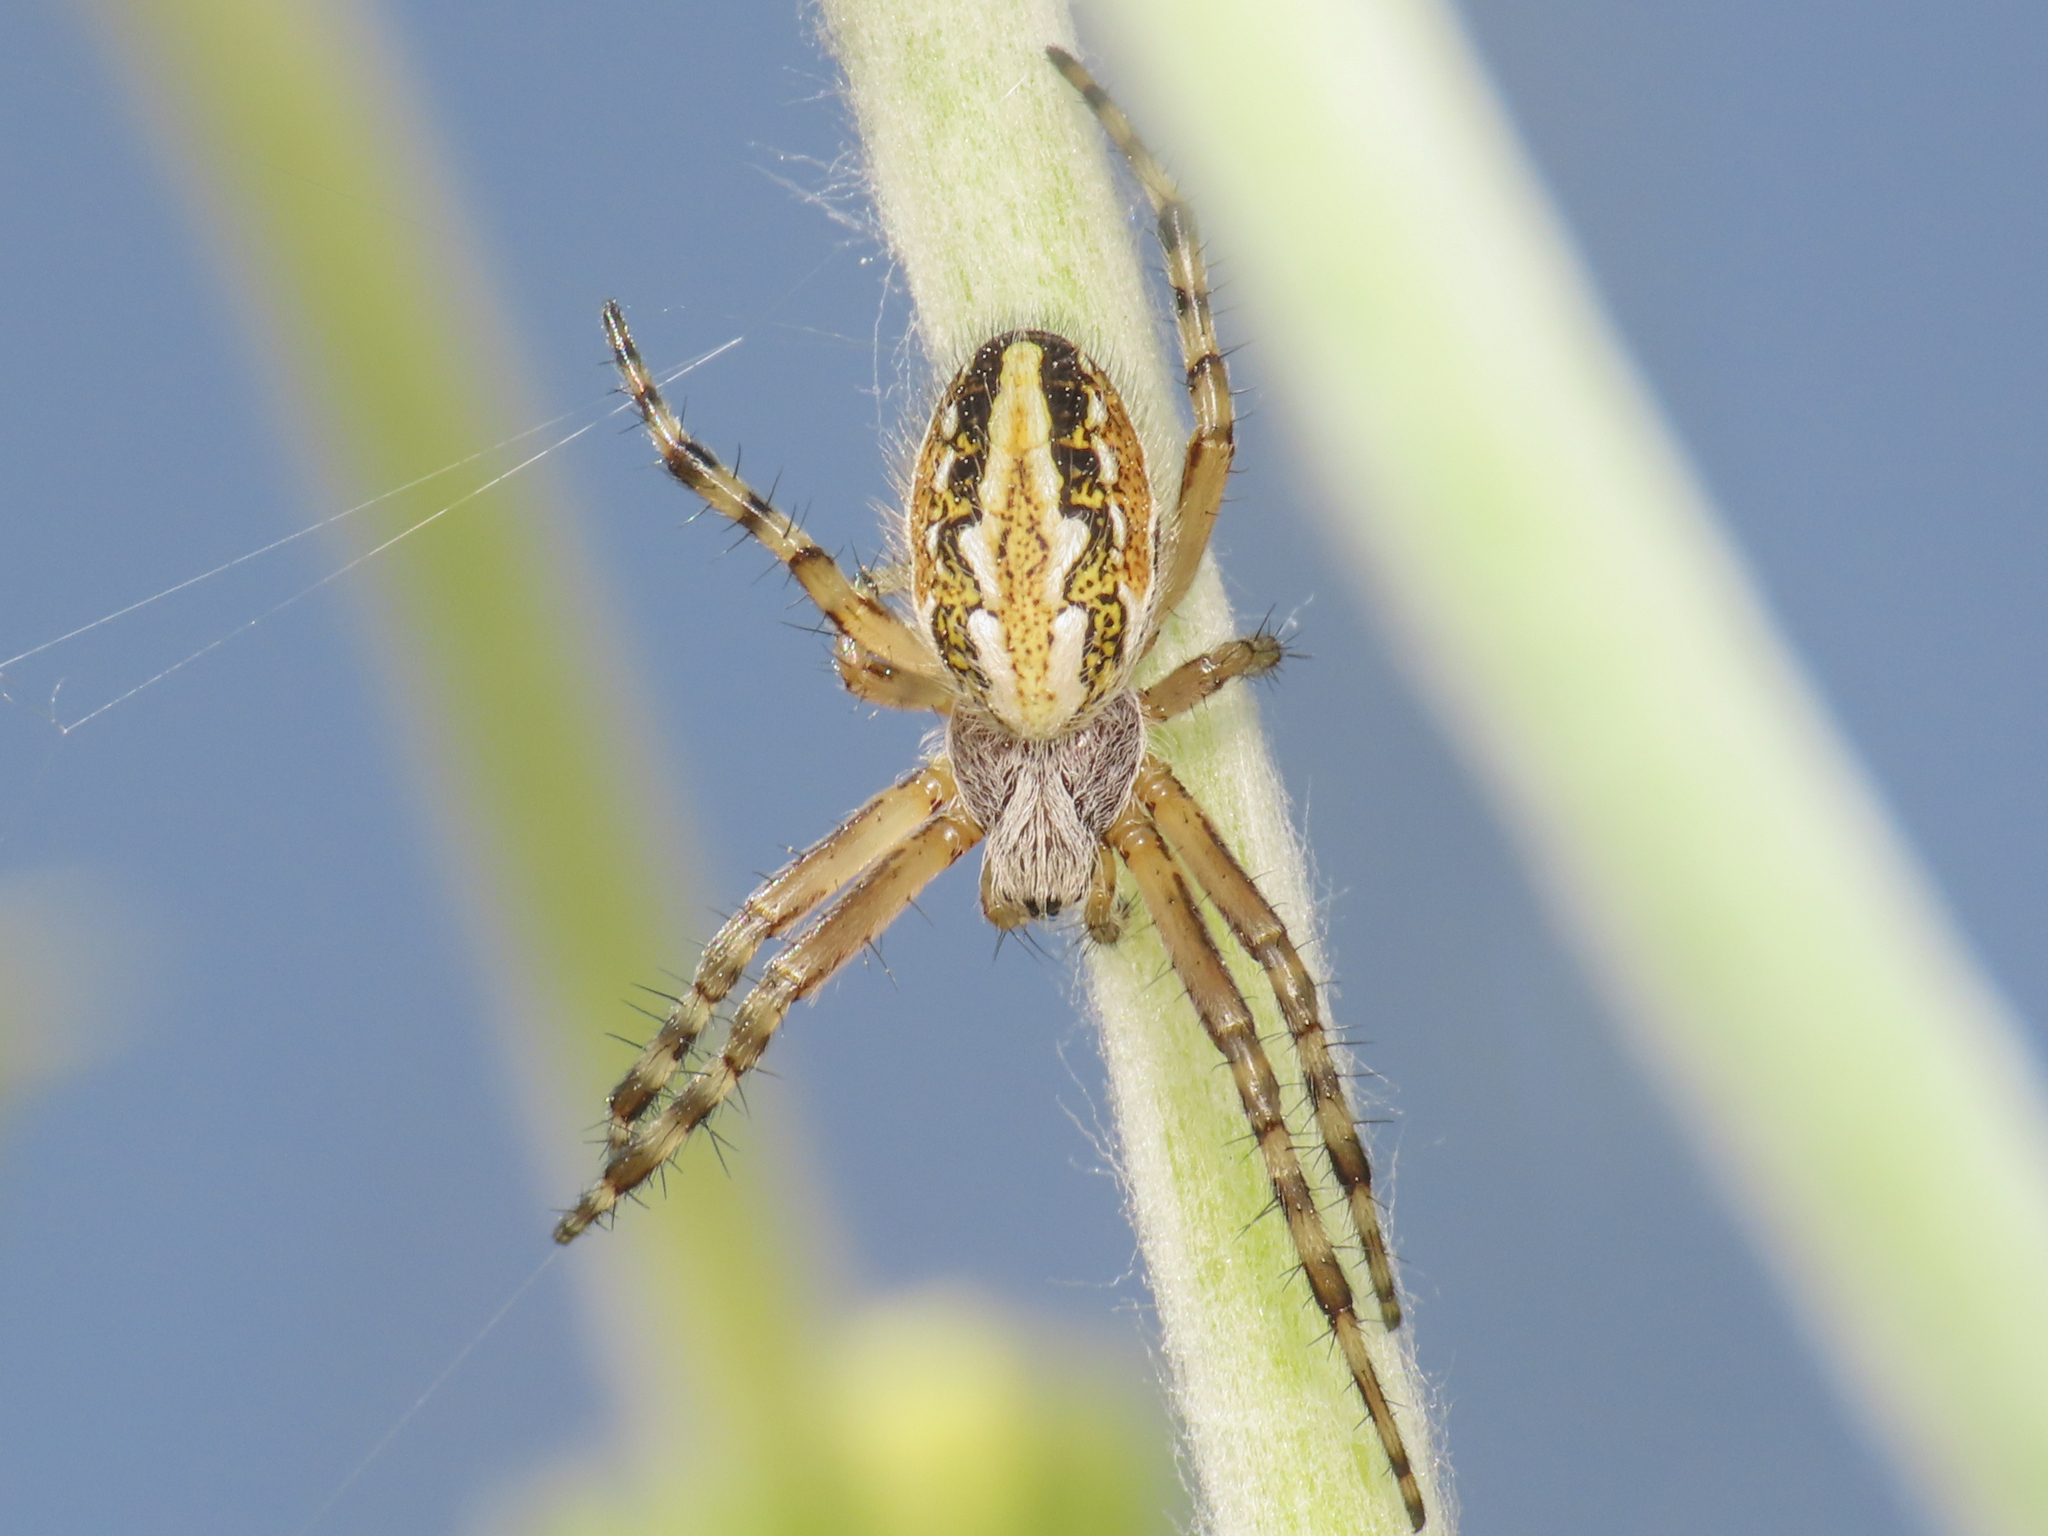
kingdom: Animalia
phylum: Arthropoda
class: Arachnida
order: Araneae
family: Araneidae
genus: Aculepeira
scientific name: Aculepeira armida
